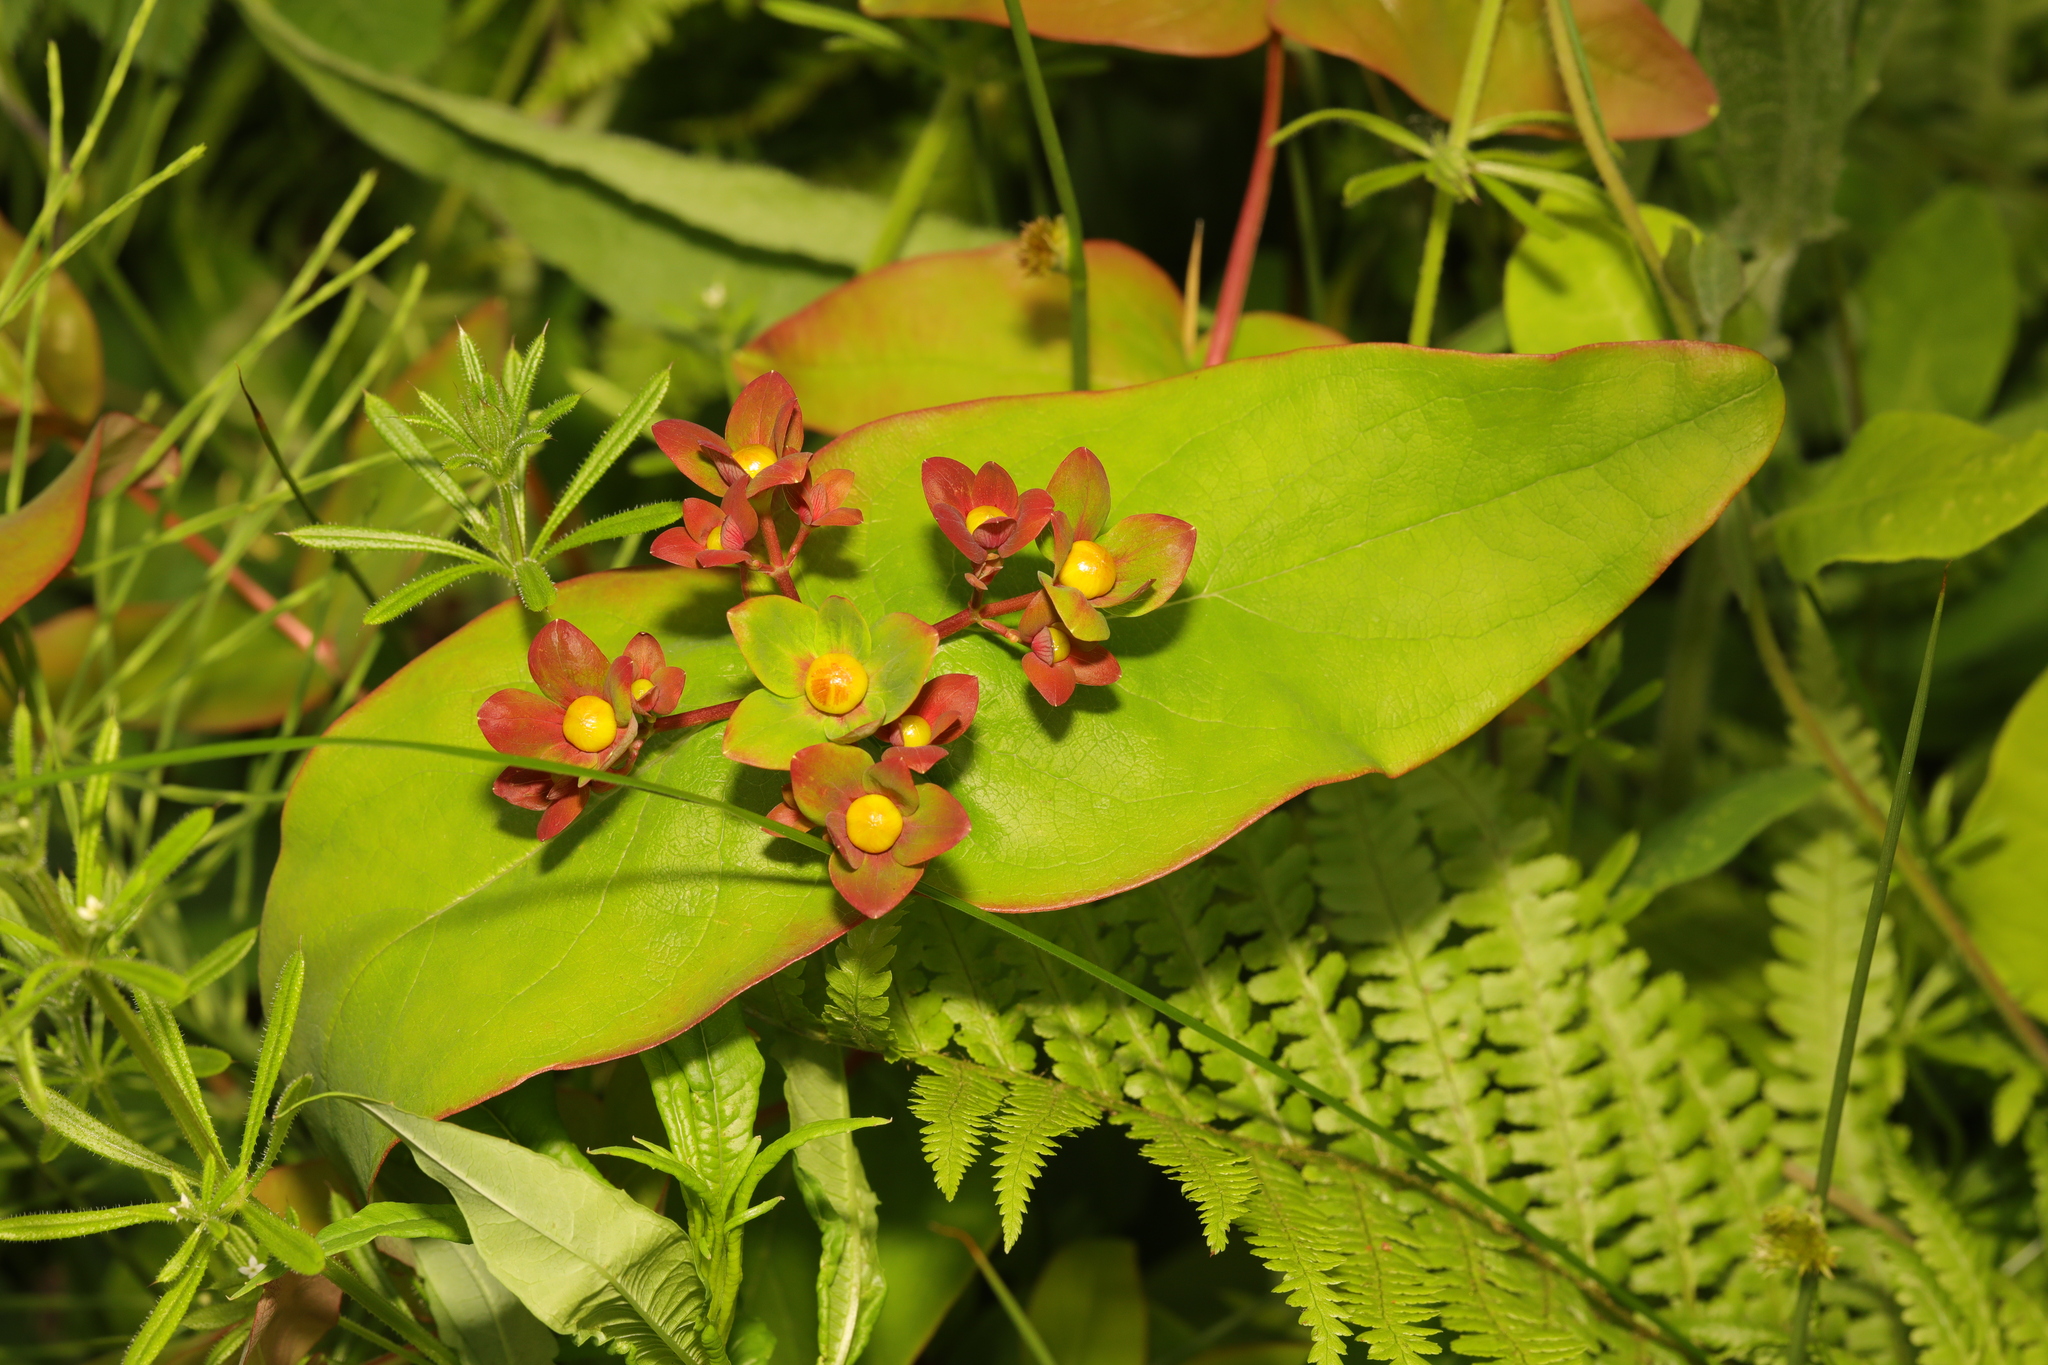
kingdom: Plantae
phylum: Tracheophyta
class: Magnoliopsida
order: Malpighiales
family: Hypericaceae
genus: Hypericum
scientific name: Hypericum androsaemum
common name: Sweet-amber
